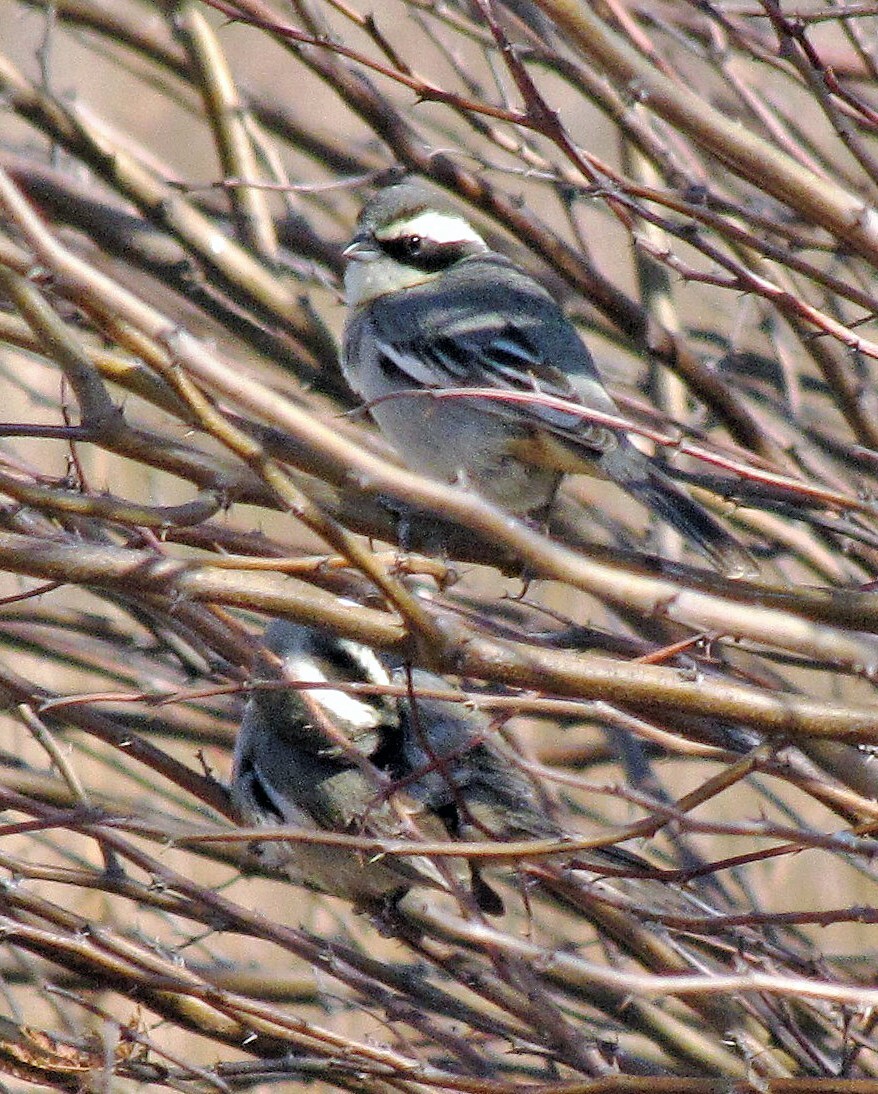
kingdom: Animalia
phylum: Chordata
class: Aves
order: Passeriformes
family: Thraupidae
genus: Microspingus
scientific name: Microspingus torquatus
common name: Ringed warbling-finch
